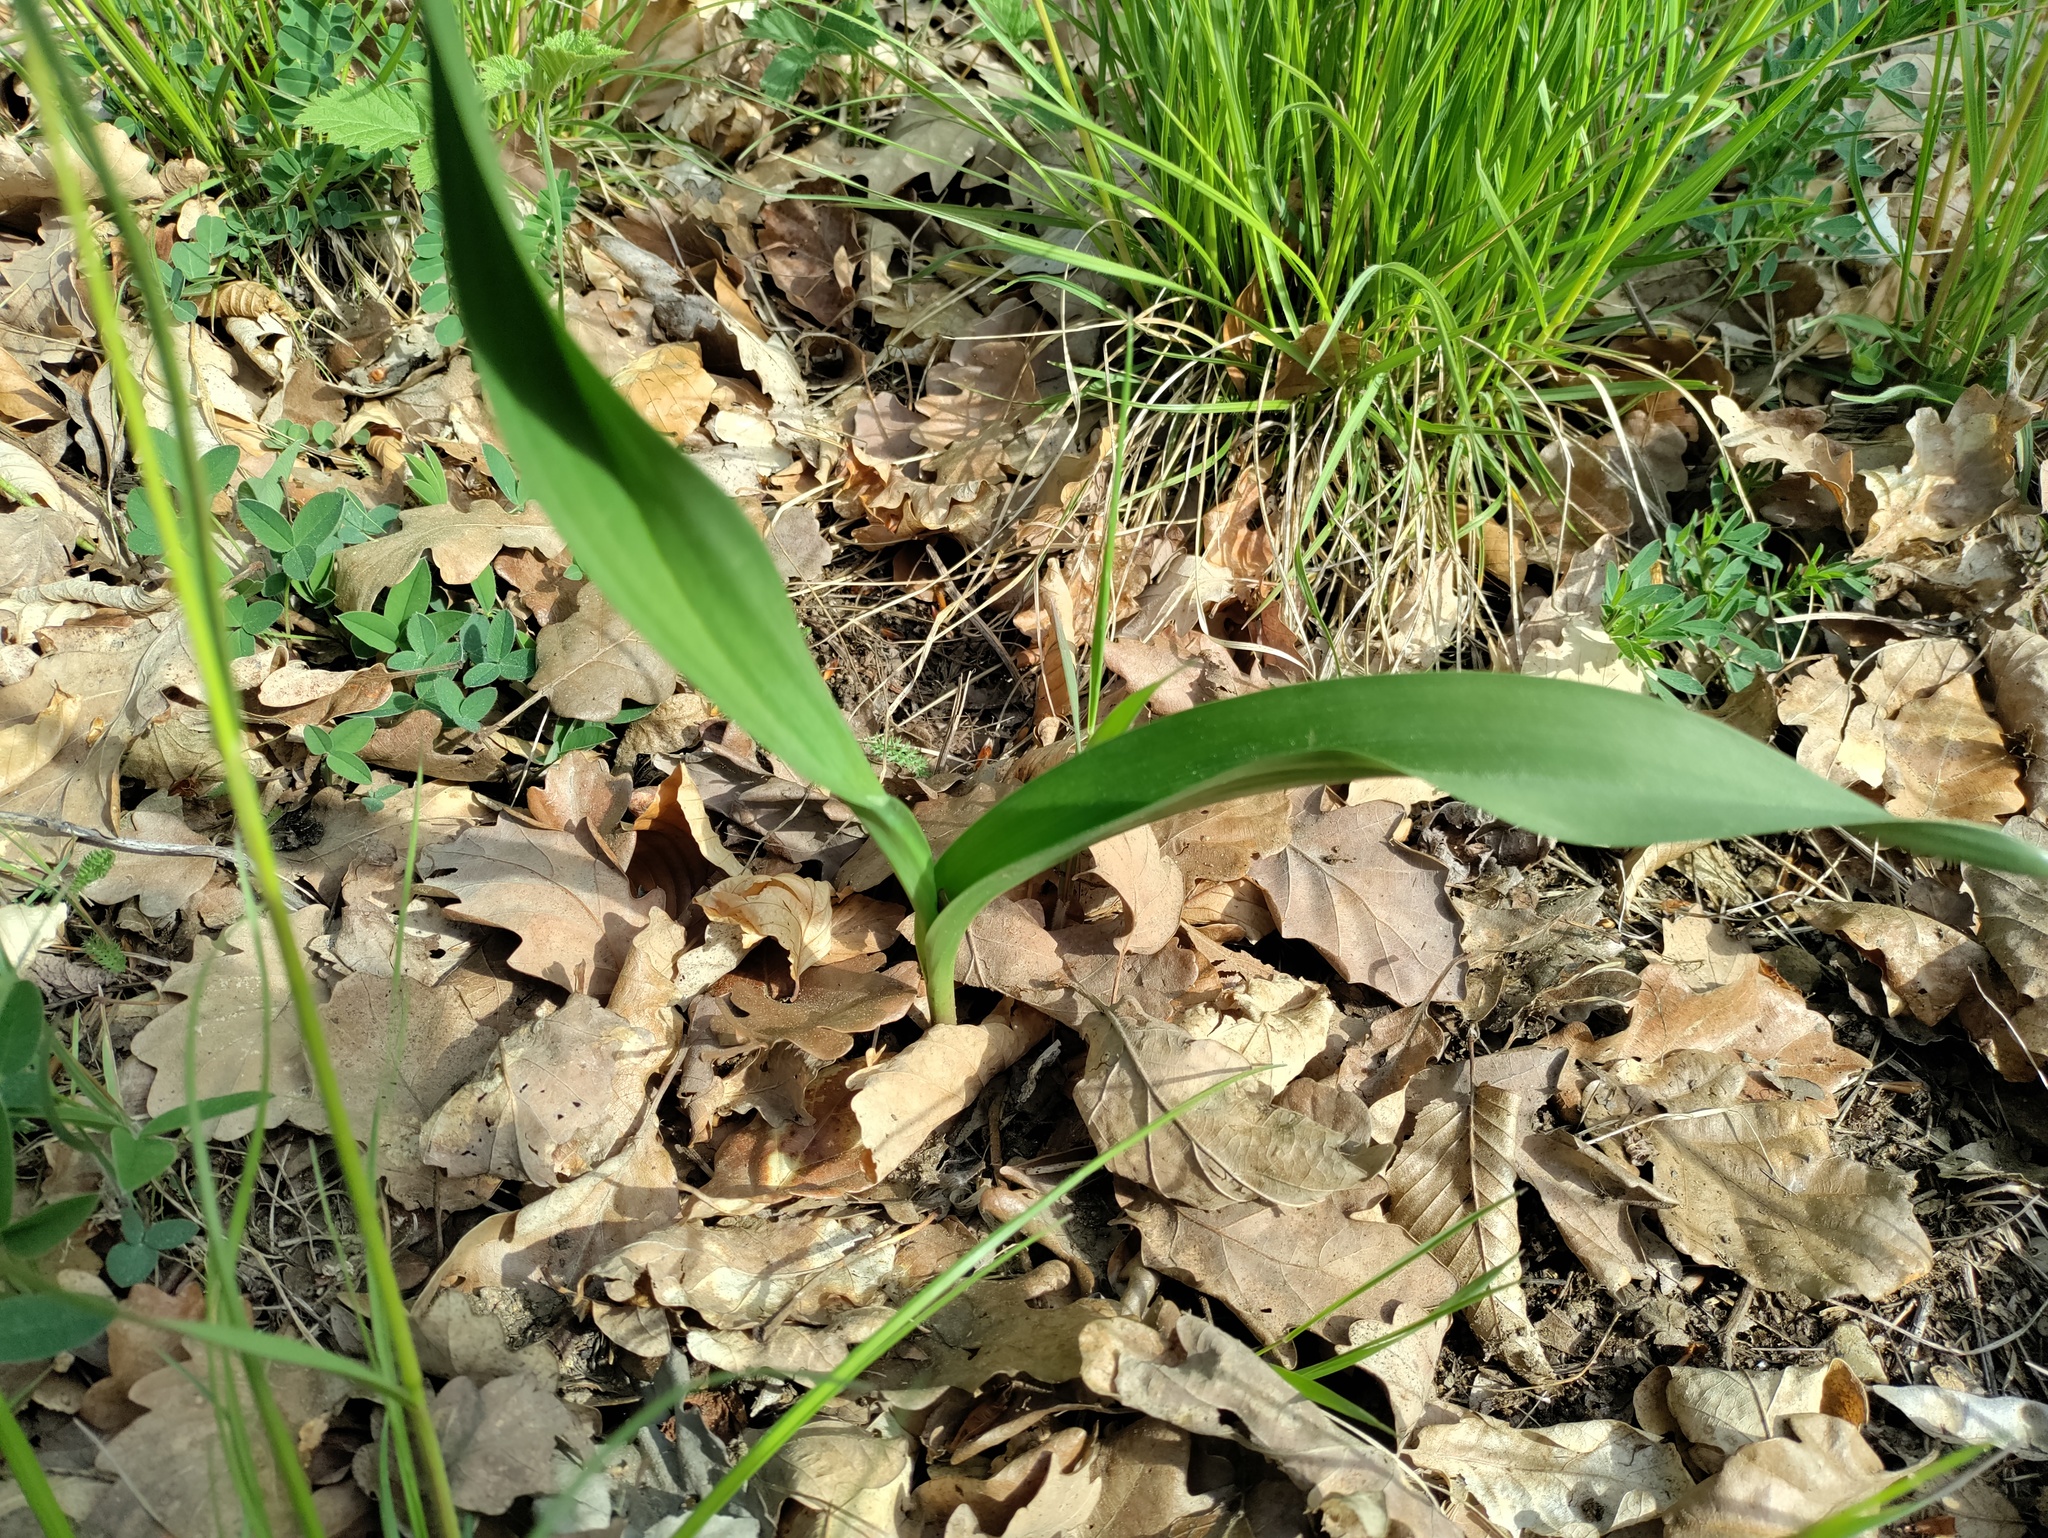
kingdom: Plantae
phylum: Tracheophyta
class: Liliopsida
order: Liliales
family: Colchicaceae
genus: Colchicum
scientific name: Colchicum autumnale
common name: Autumn crocus
